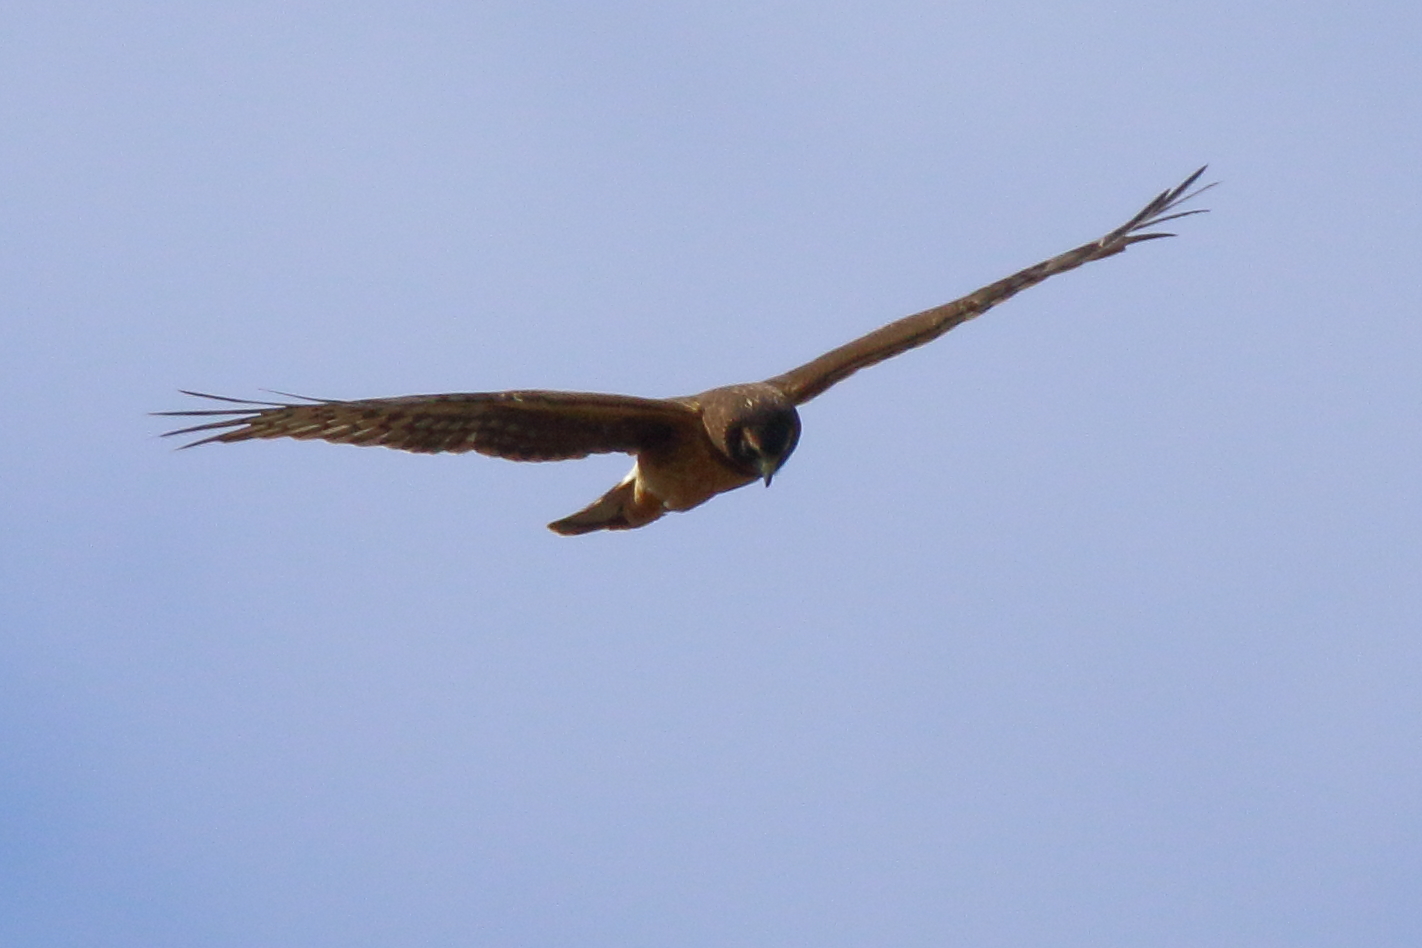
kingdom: Animalia
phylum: Chordata
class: Aves
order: Accipitriformes
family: Accipitridae
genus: Circus
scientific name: Circus cyaneus
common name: Hen harrier
